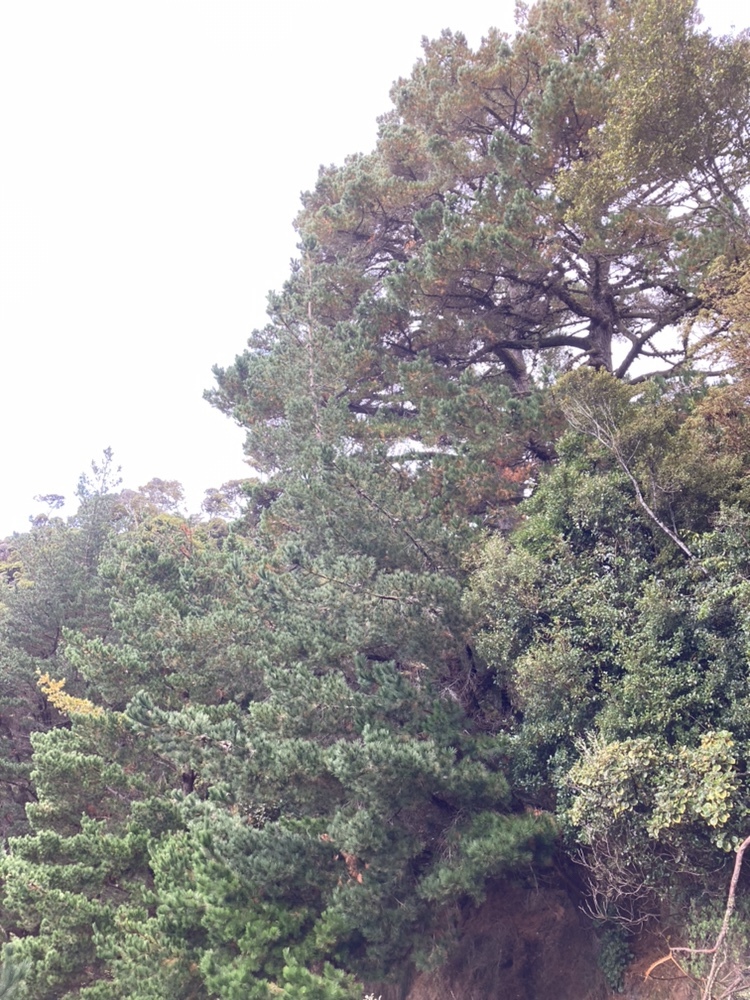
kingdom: Plantae
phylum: Tracheophyta
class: Pinopsida
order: Pinales
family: Pinaceae
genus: Pinus
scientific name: Pinus radiata
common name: Monterey pine
